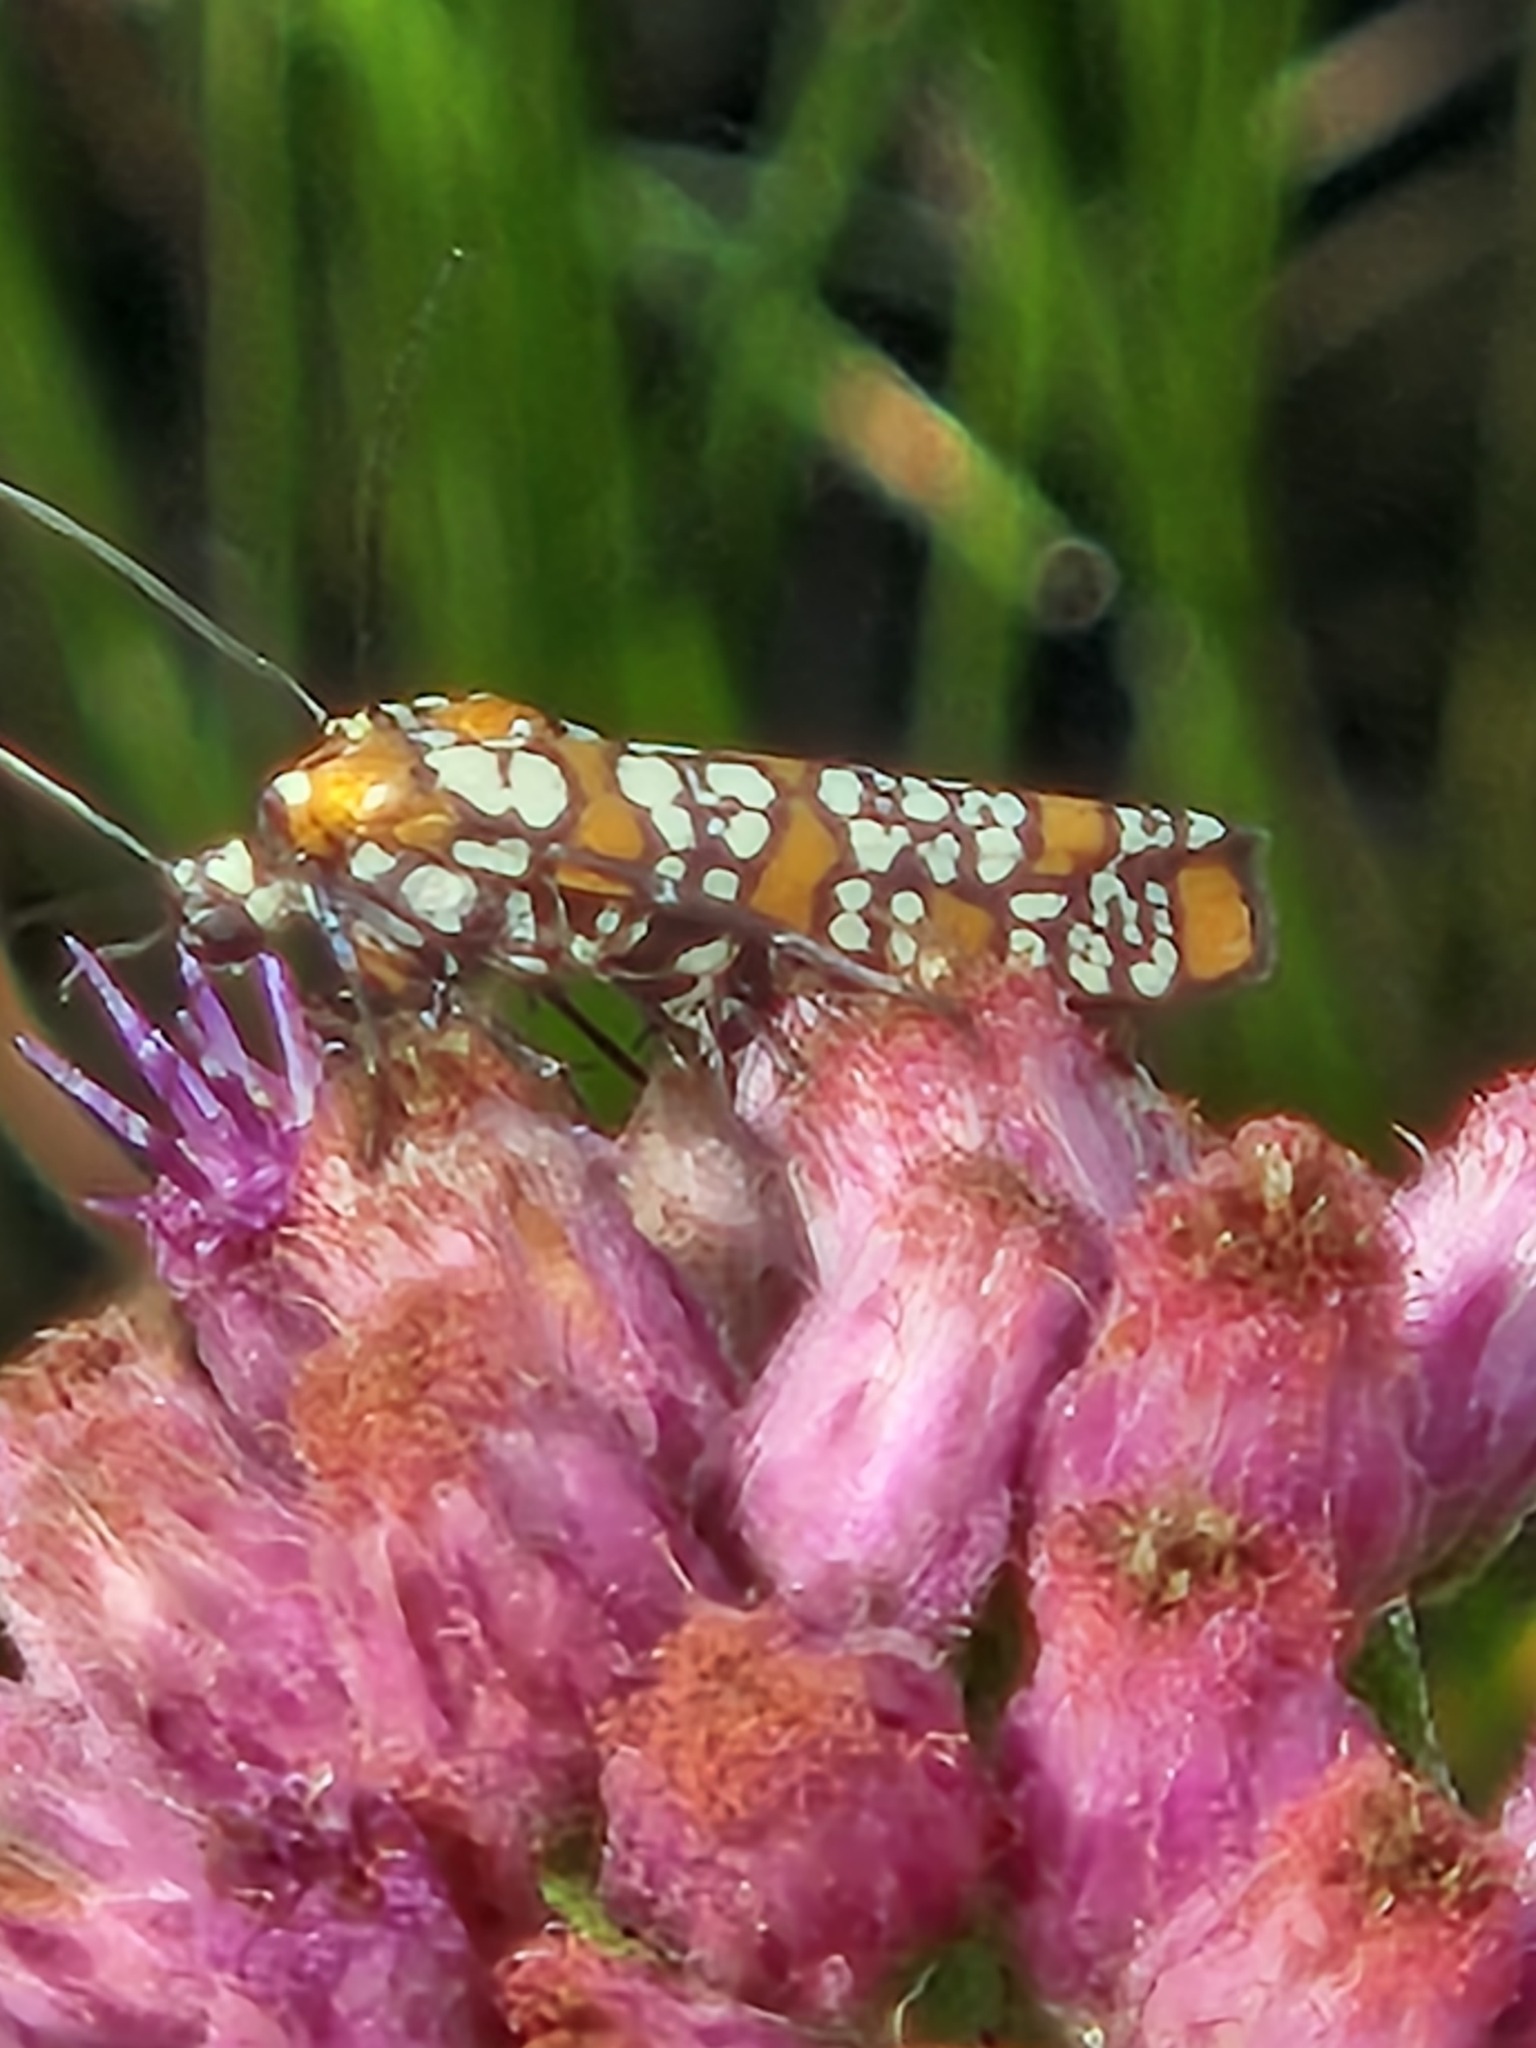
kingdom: Animalia
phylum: Arthropoda
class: Insecta
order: Lepidoptera
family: Attevidae
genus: Atteva
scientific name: Atteva punctella
